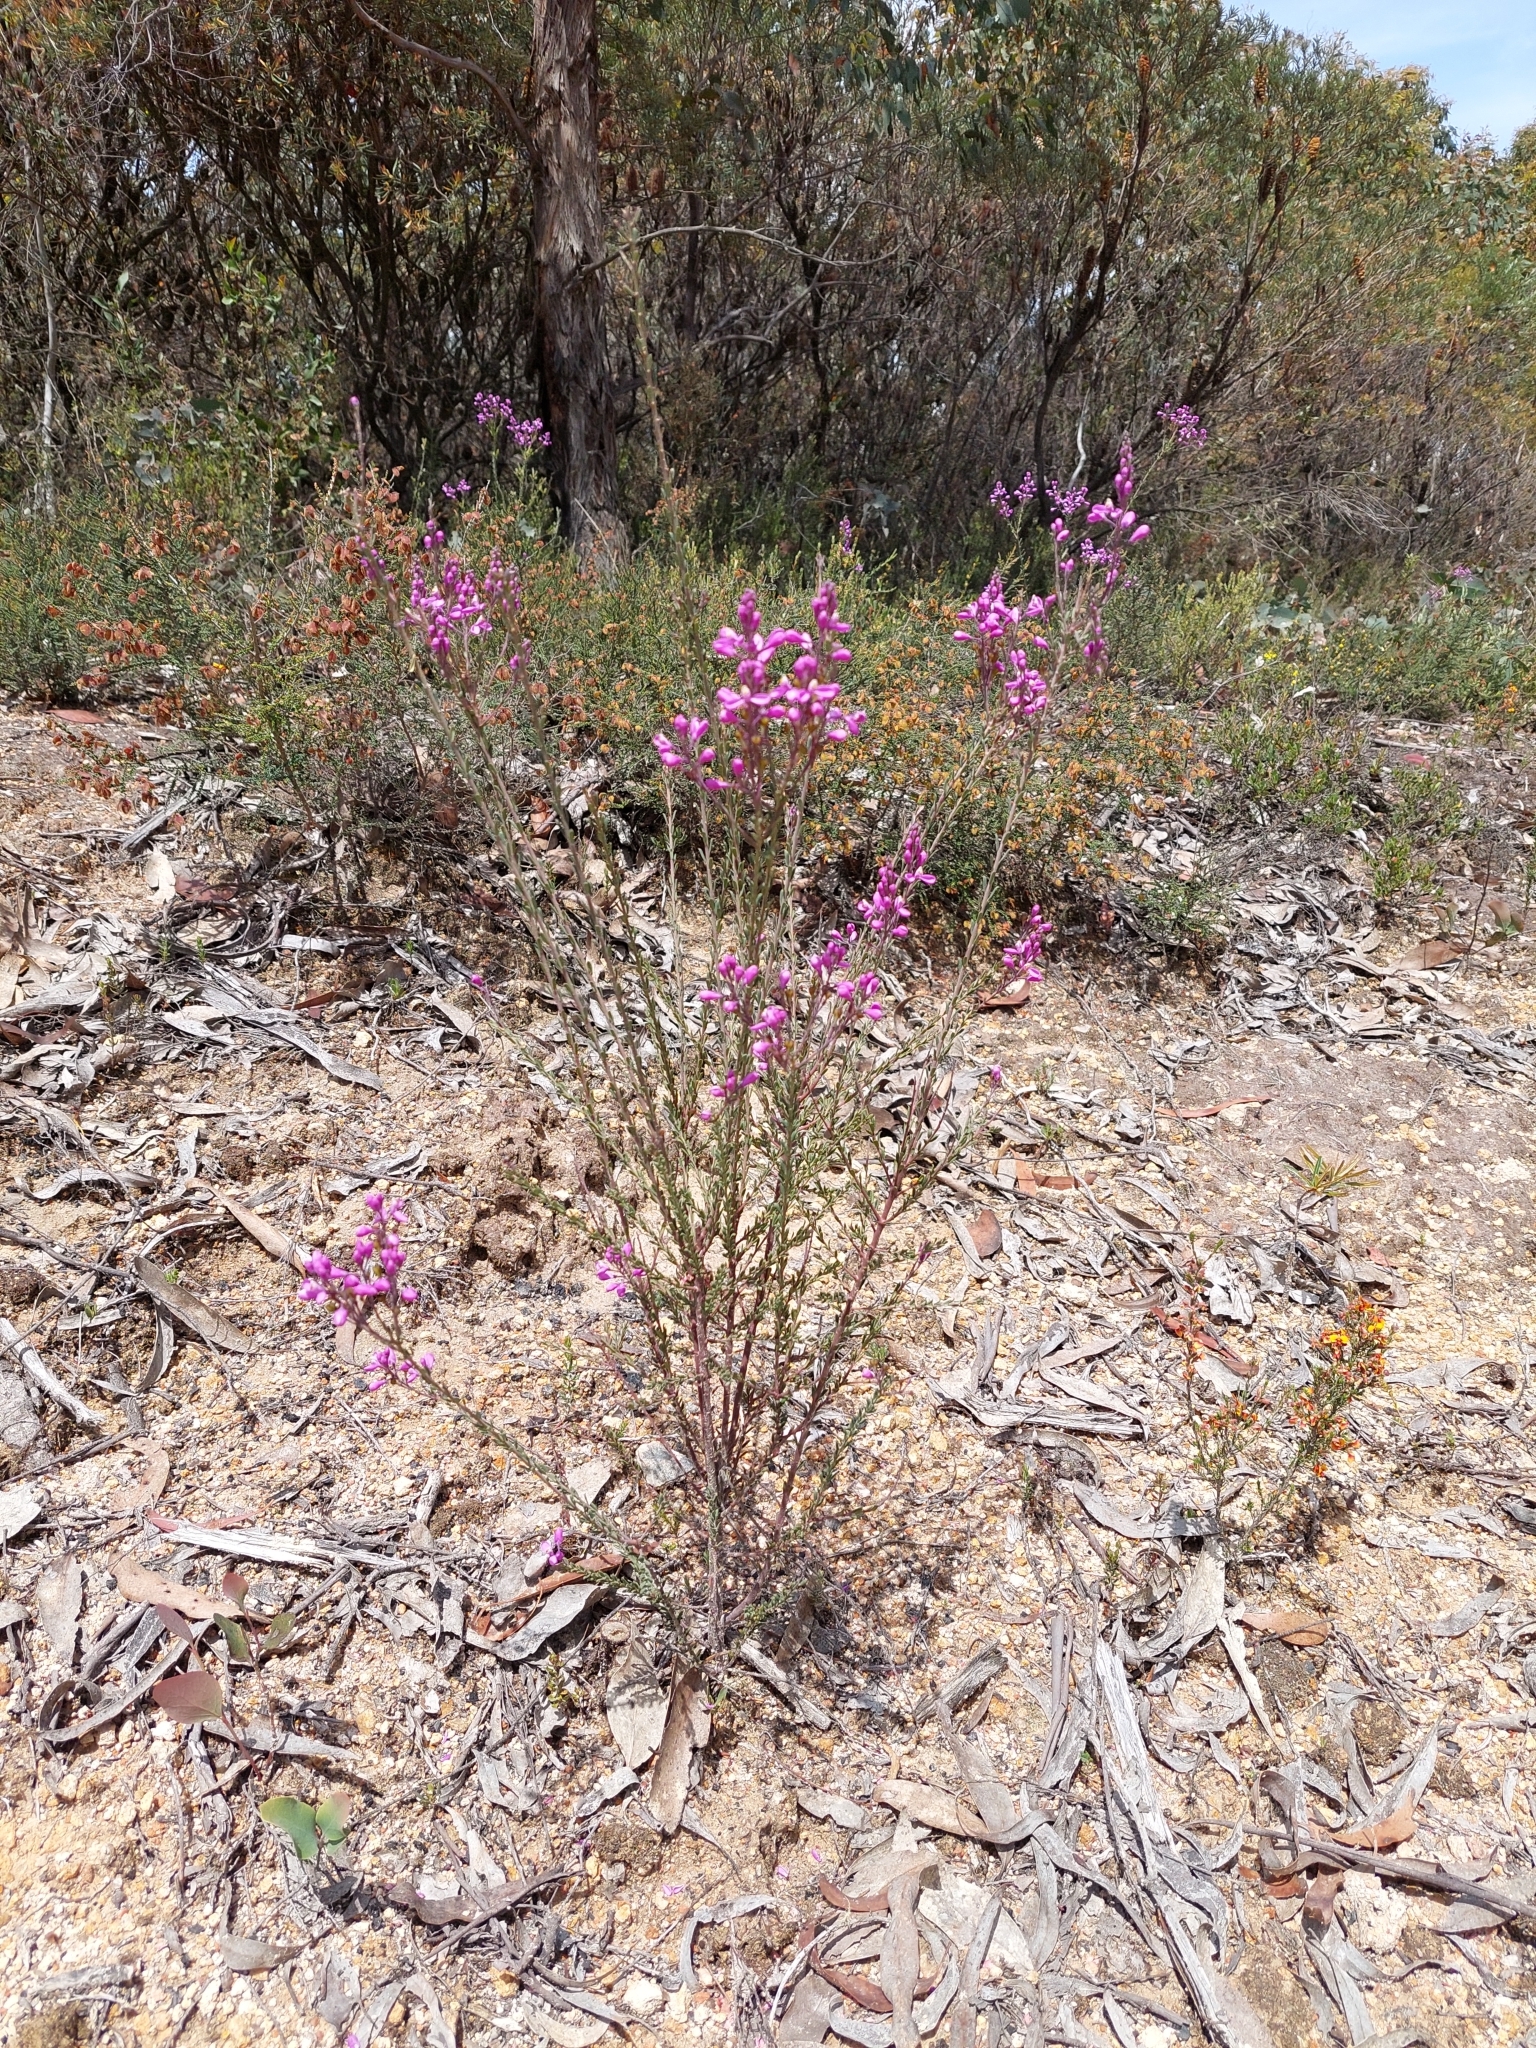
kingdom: Plantae
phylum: Tracheophyta
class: Magnoliopsida
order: Fabales
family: Polygalaceae
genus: Comesperma
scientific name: Comesperma retusum
